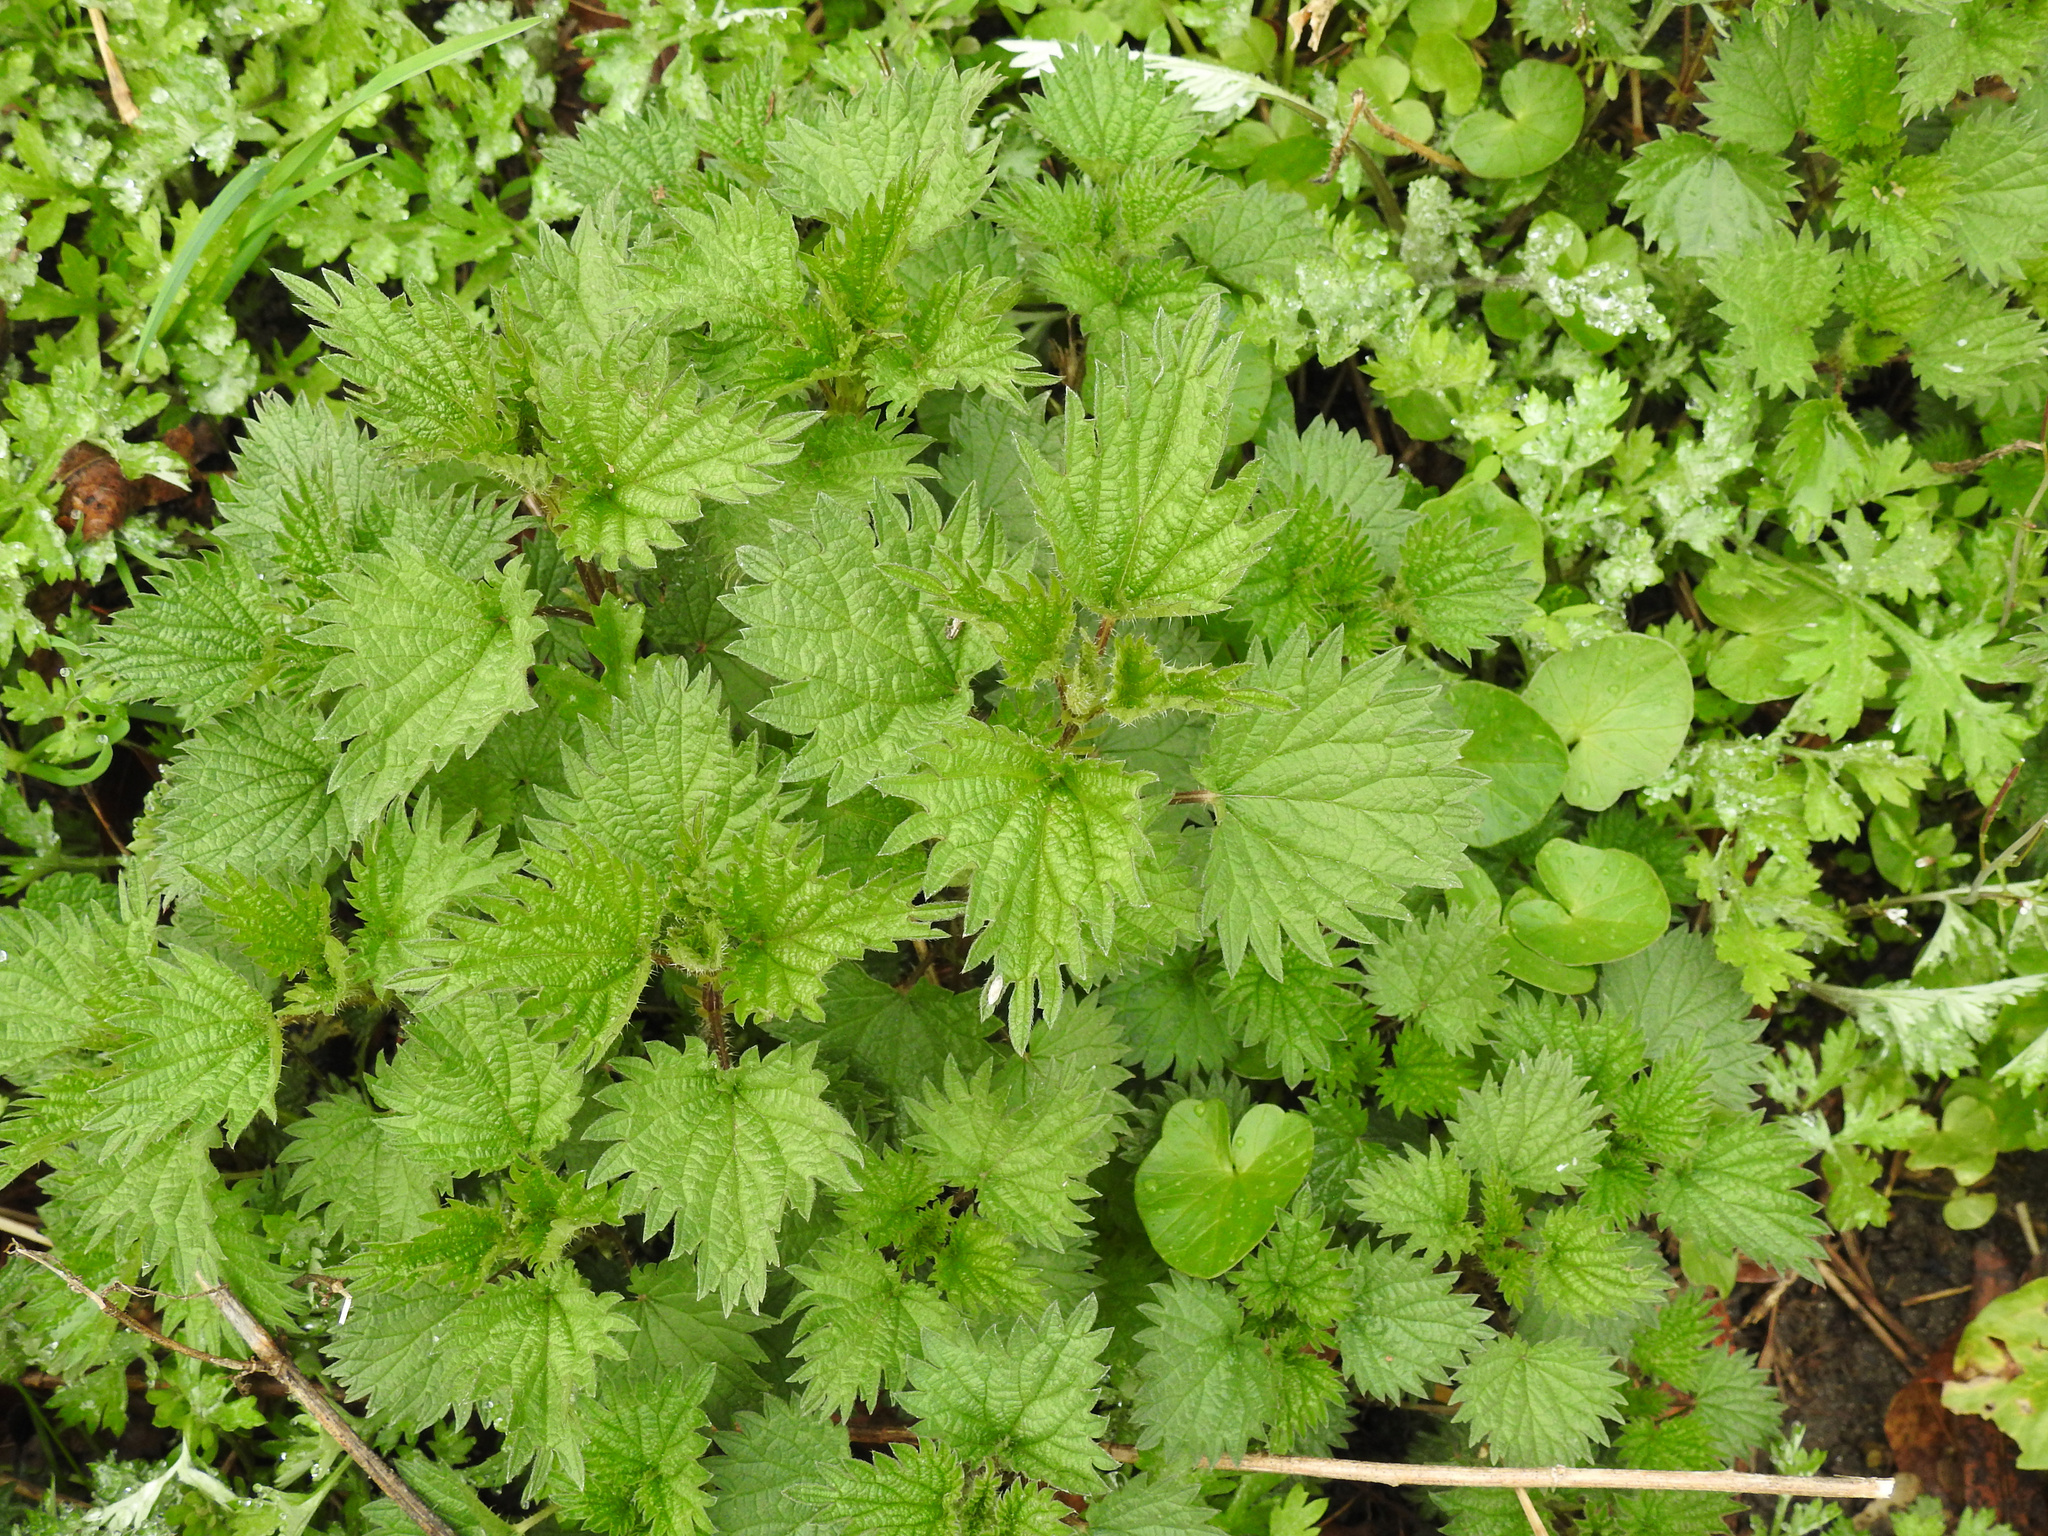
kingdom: Plantae
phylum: Tracheophyta
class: Magnoliopsida
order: Rosales
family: Urticaceae
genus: Urtica
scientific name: Urtica dioica
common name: Common nettle
